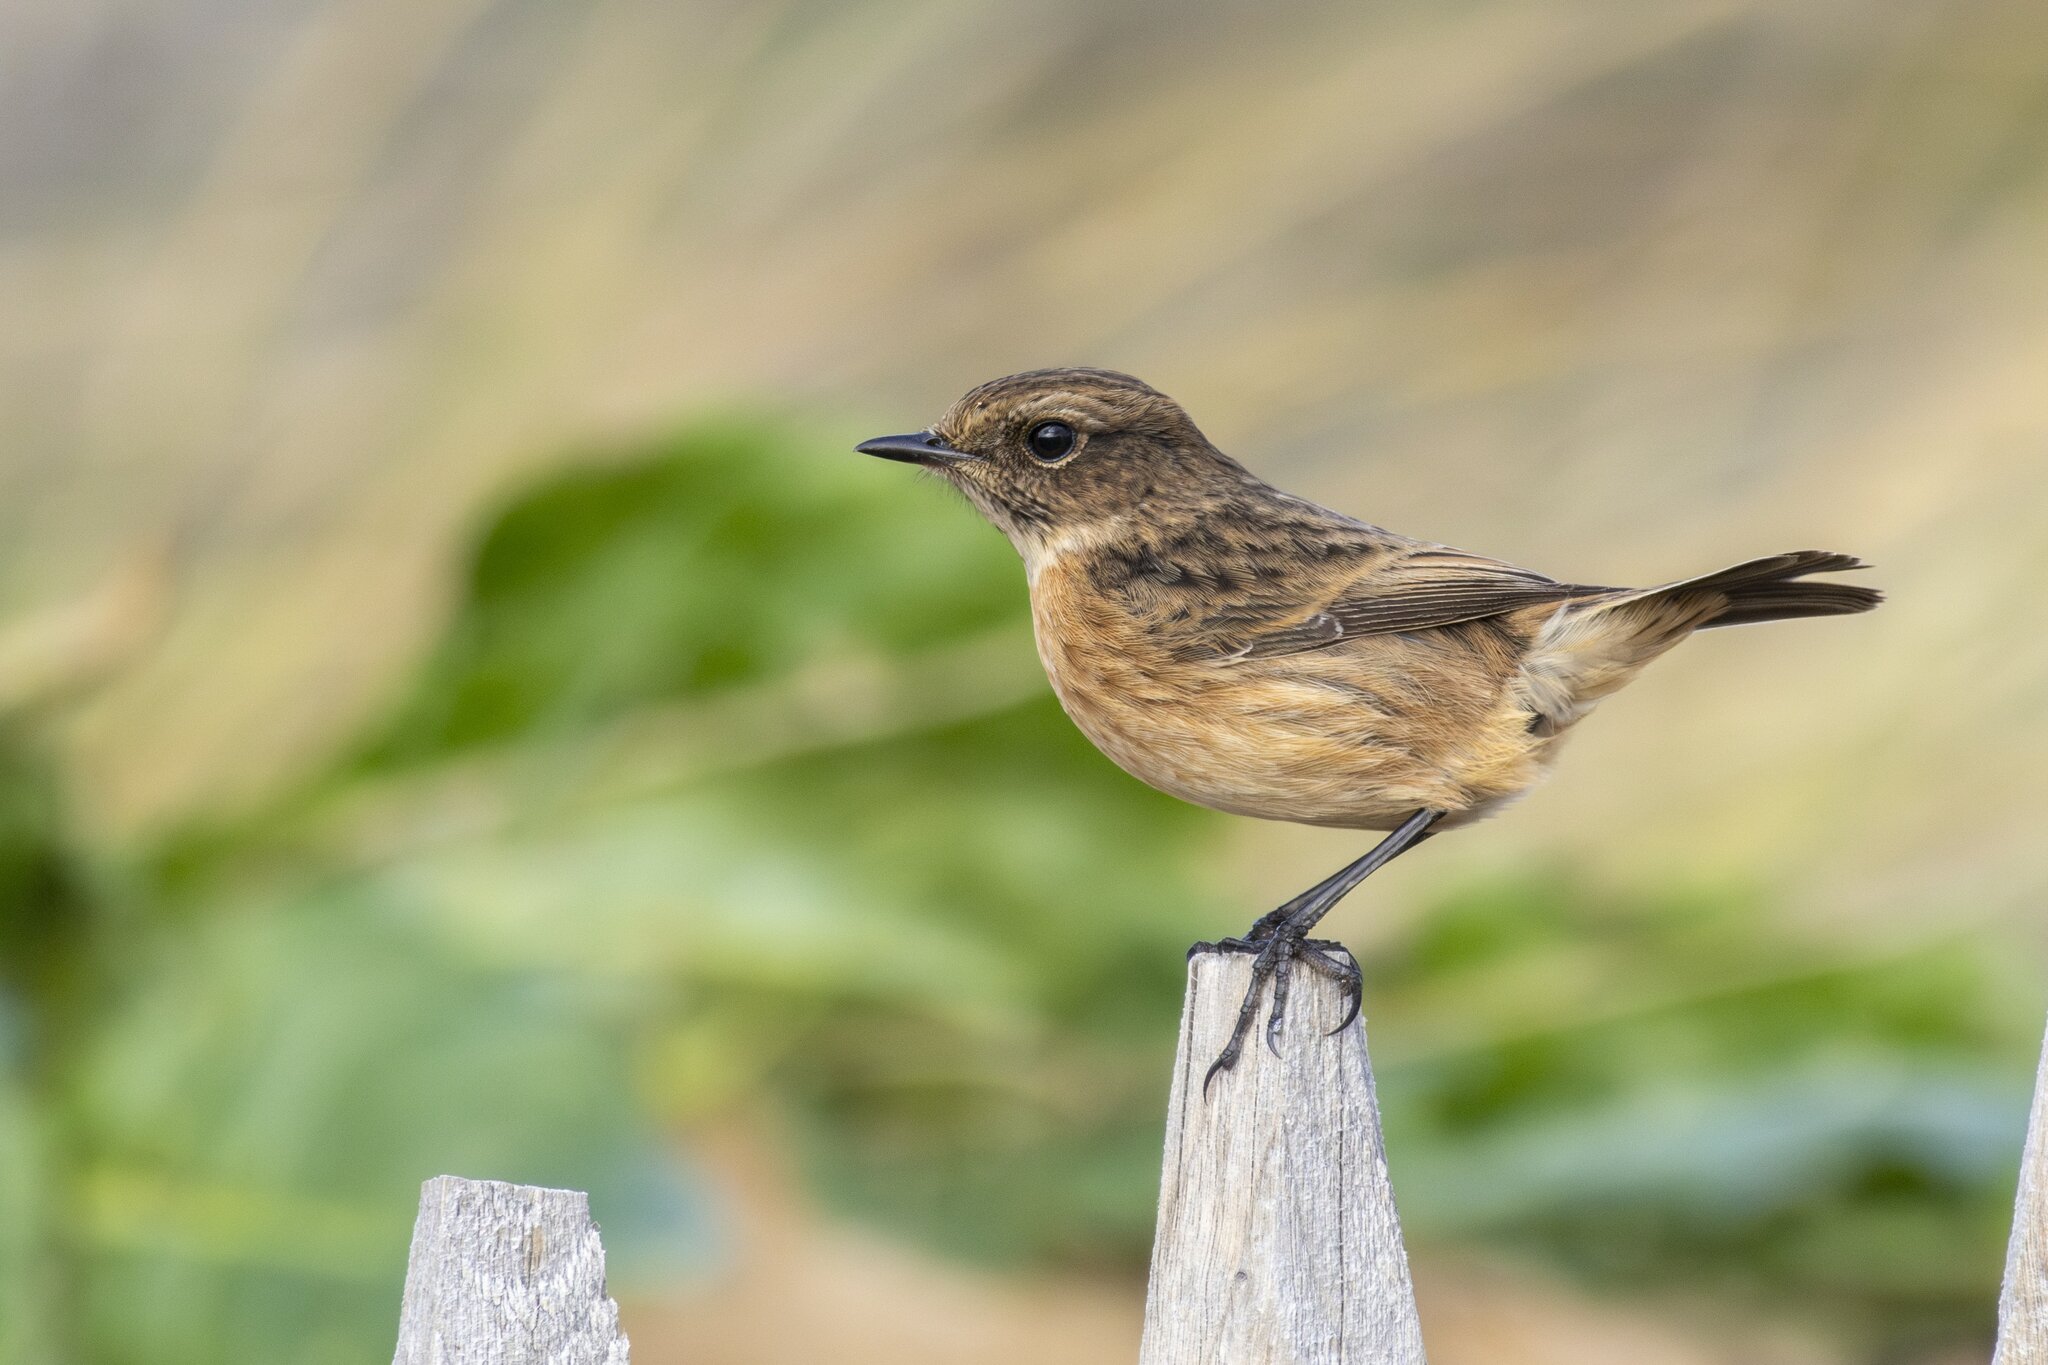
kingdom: Animalia
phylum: Chordata
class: Aves
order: Passeriformes
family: Muscicapidae
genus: Saxicola
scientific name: Saxicola rubicola
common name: European stonechat
